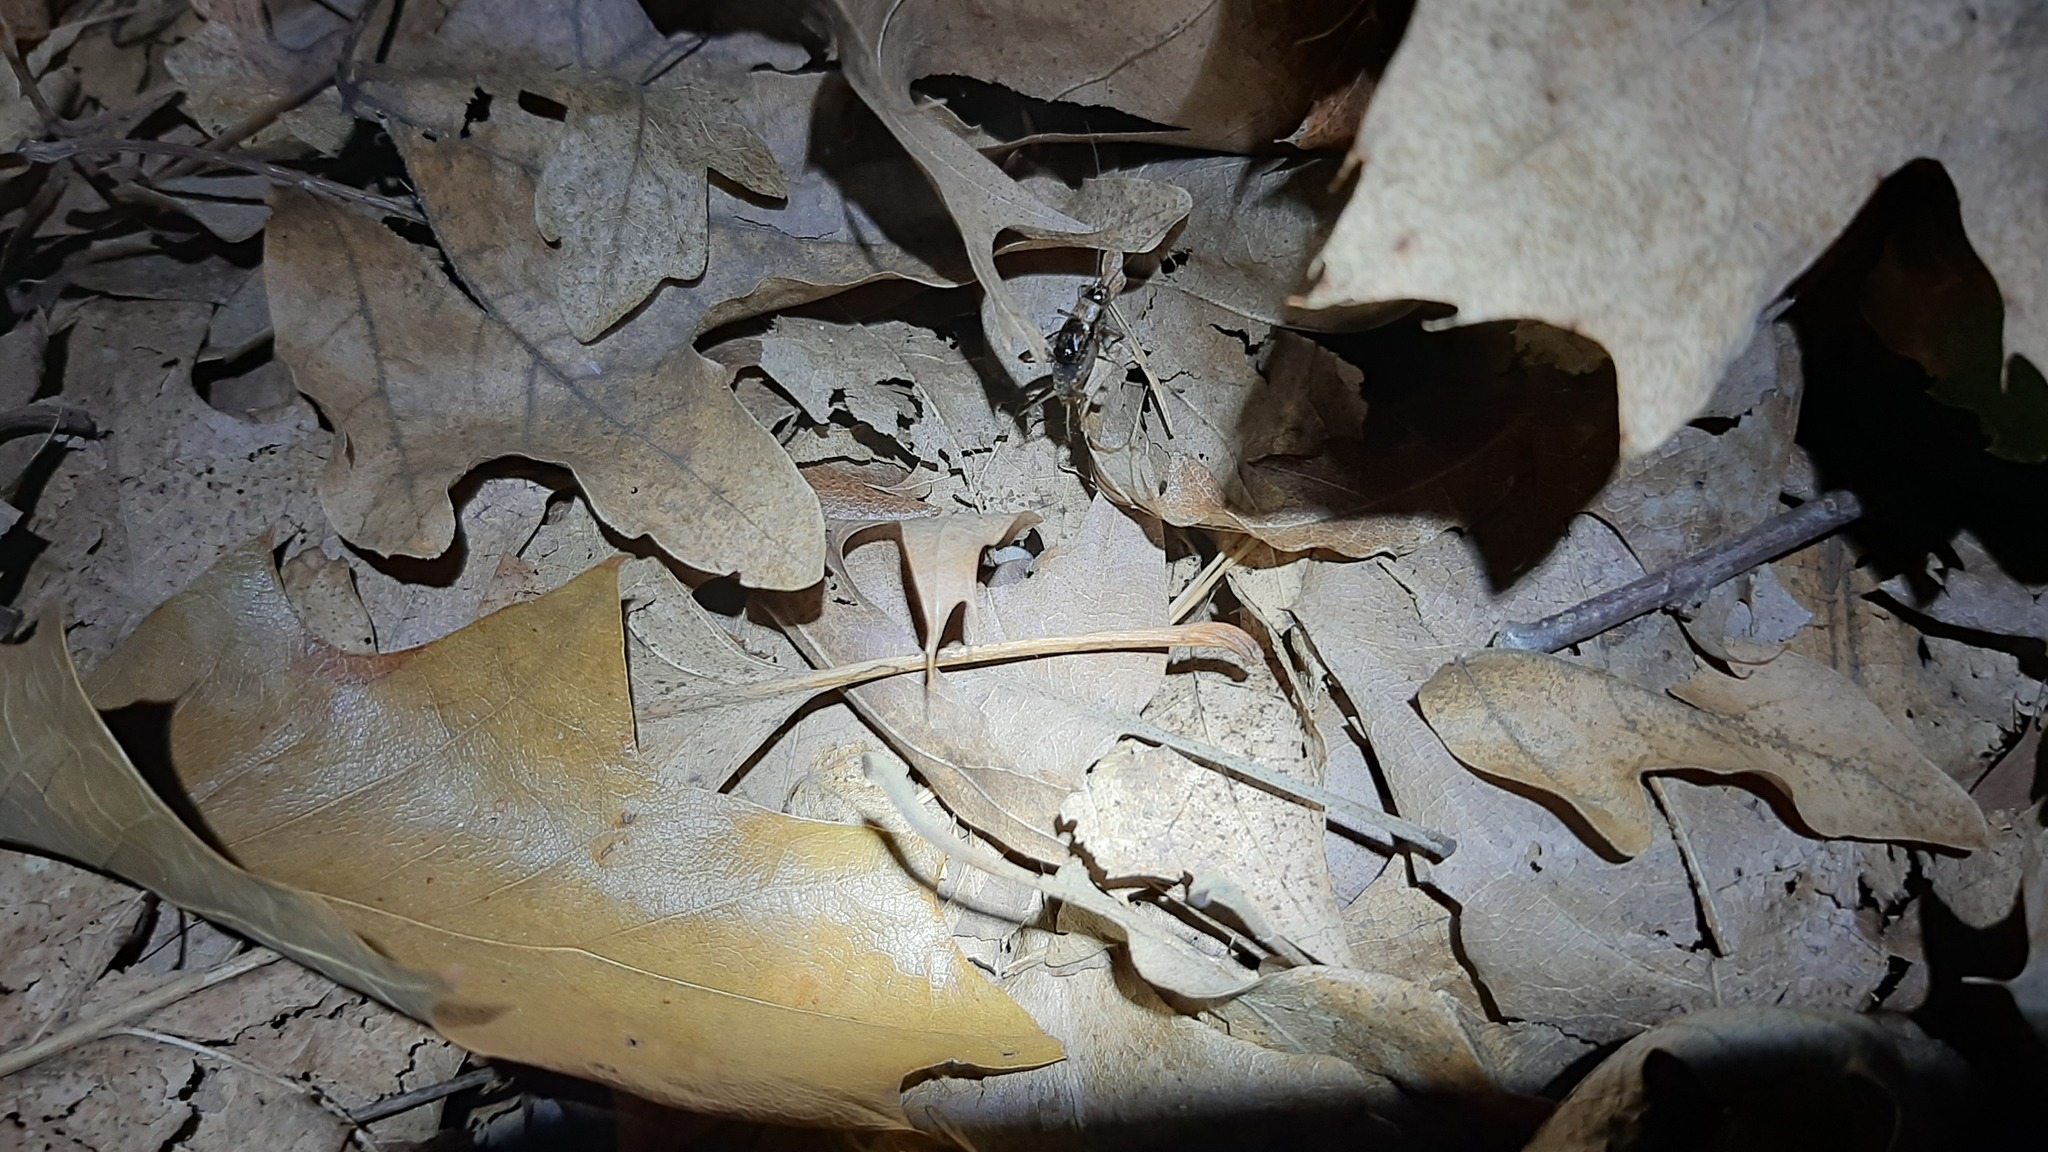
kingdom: Animalia
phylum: Arthropoda
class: Insecta
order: Orthoptera
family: Trigonidiidae
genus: Nemobius
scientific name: Nemobius sylvestris
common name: Wood-cricket
